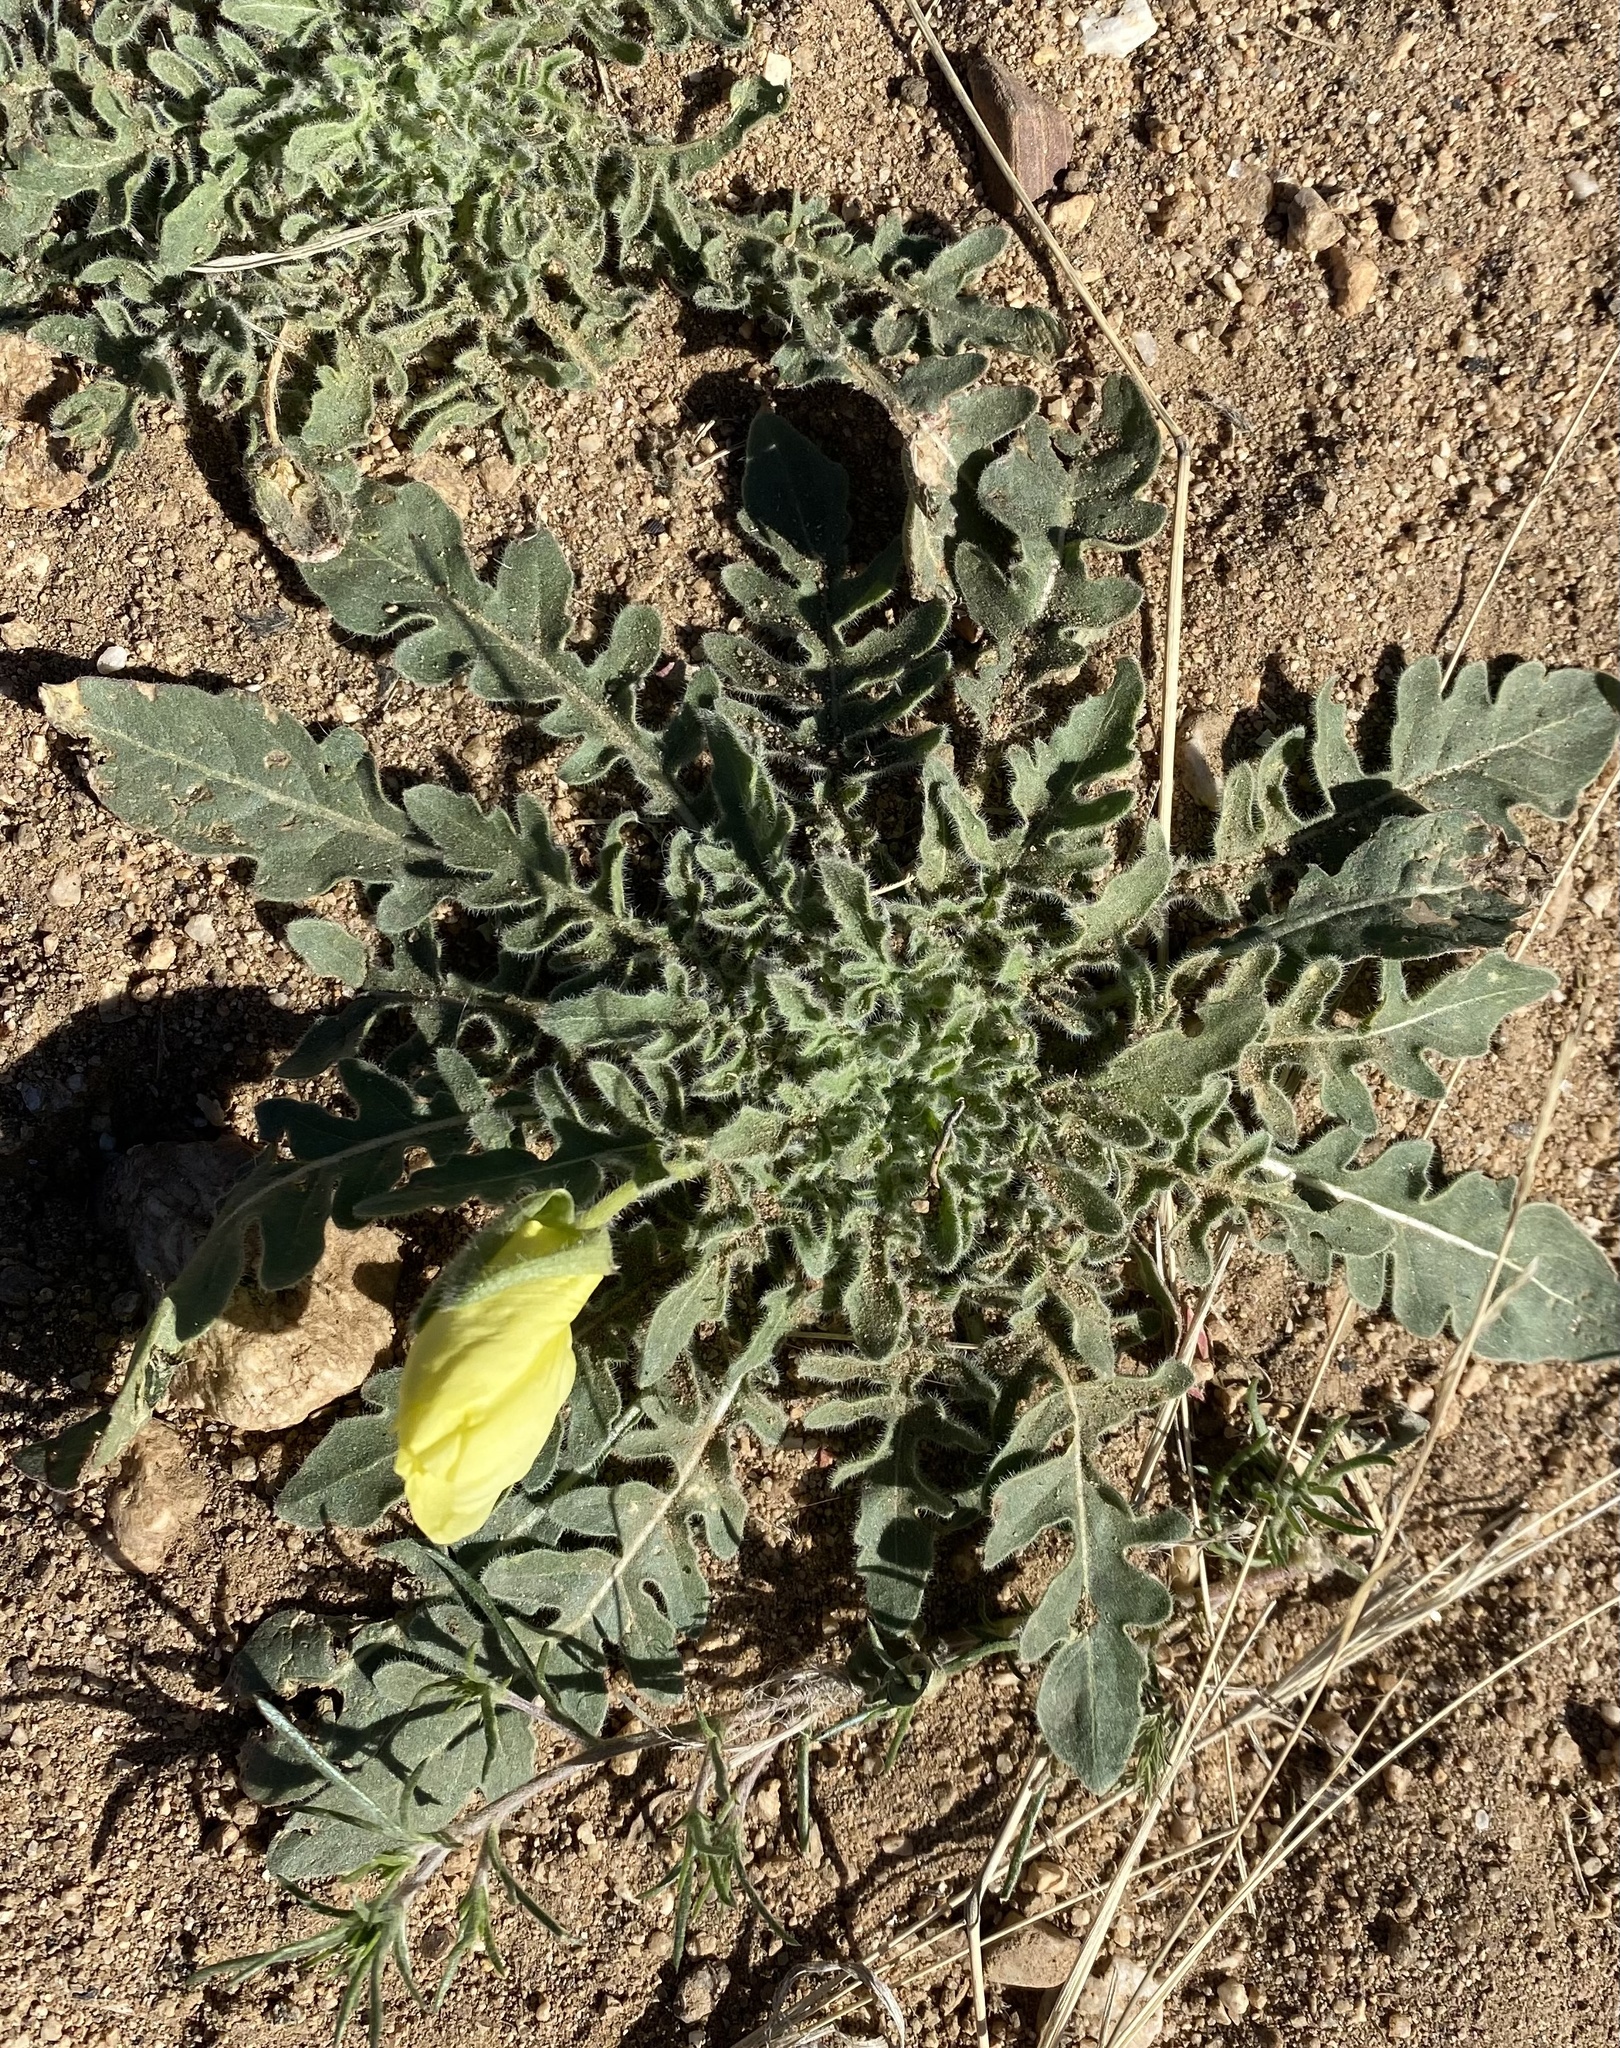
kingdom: Plantae
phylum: Tracheophyta
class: Magnoliopsida
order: Myrtales
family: Onagraceae
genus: Oenothera
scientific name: Oenothera primiveris
